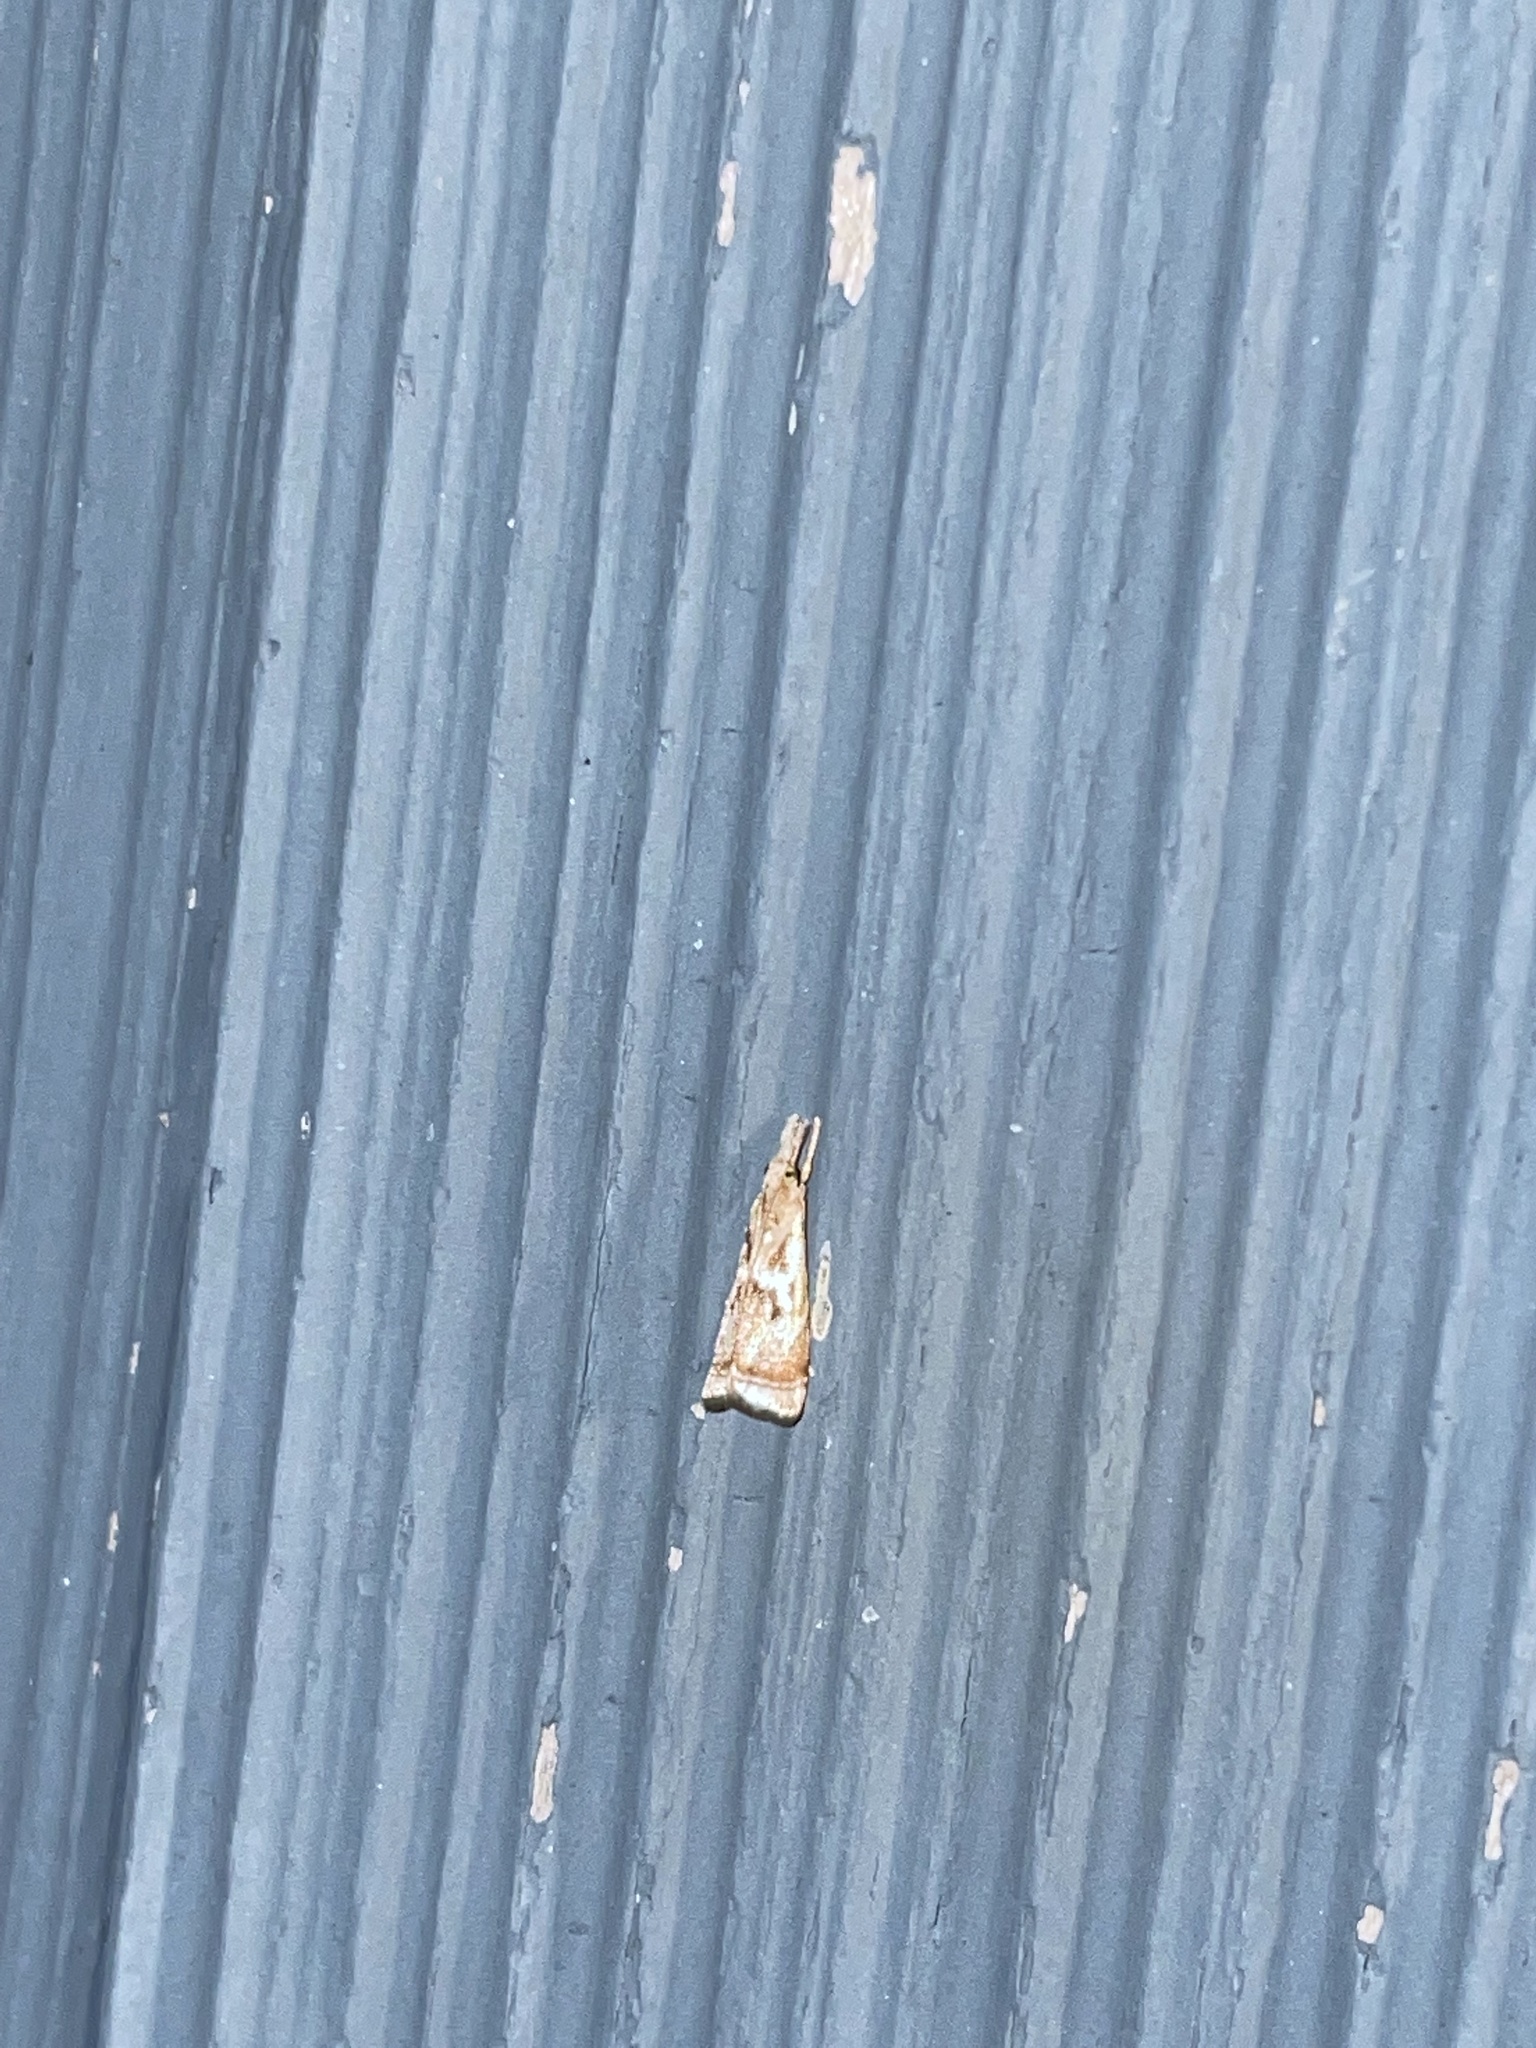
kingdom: Animalia
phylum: Arthropoda
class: Insecta
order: Lepidoptera
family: Crambidae
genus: Microcrambus
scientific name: Microcrambus elegans
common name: Elegant grass-veneer
